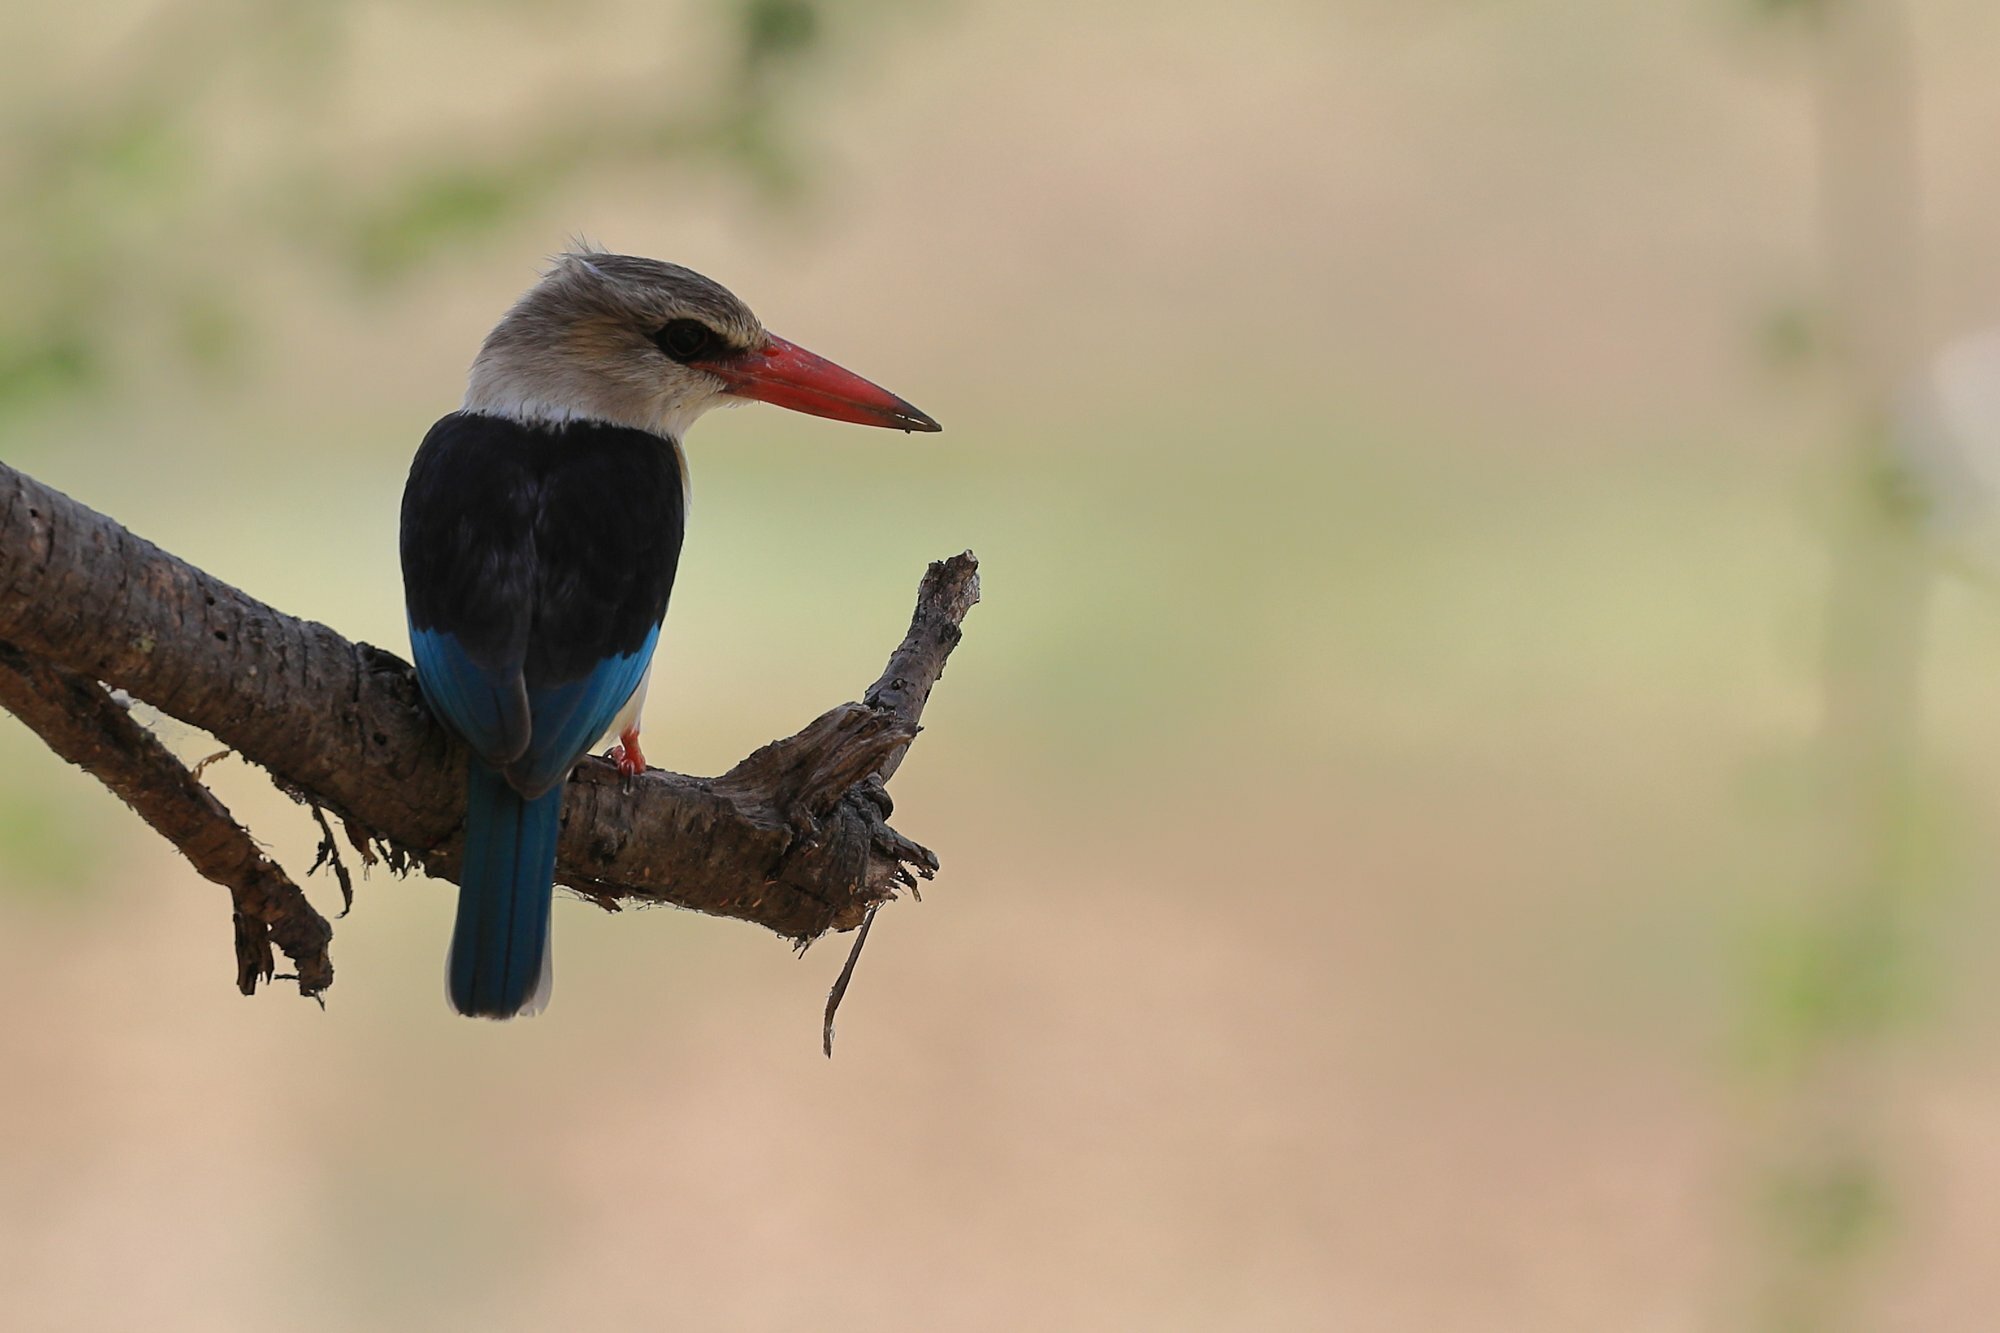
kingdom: Animalia
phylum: Chordata
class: Aves
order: Coraciiformes
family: Alcedinidae
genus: Halcyon
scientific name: Halcyon albiventris
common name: Brown-hooded kingfisher
